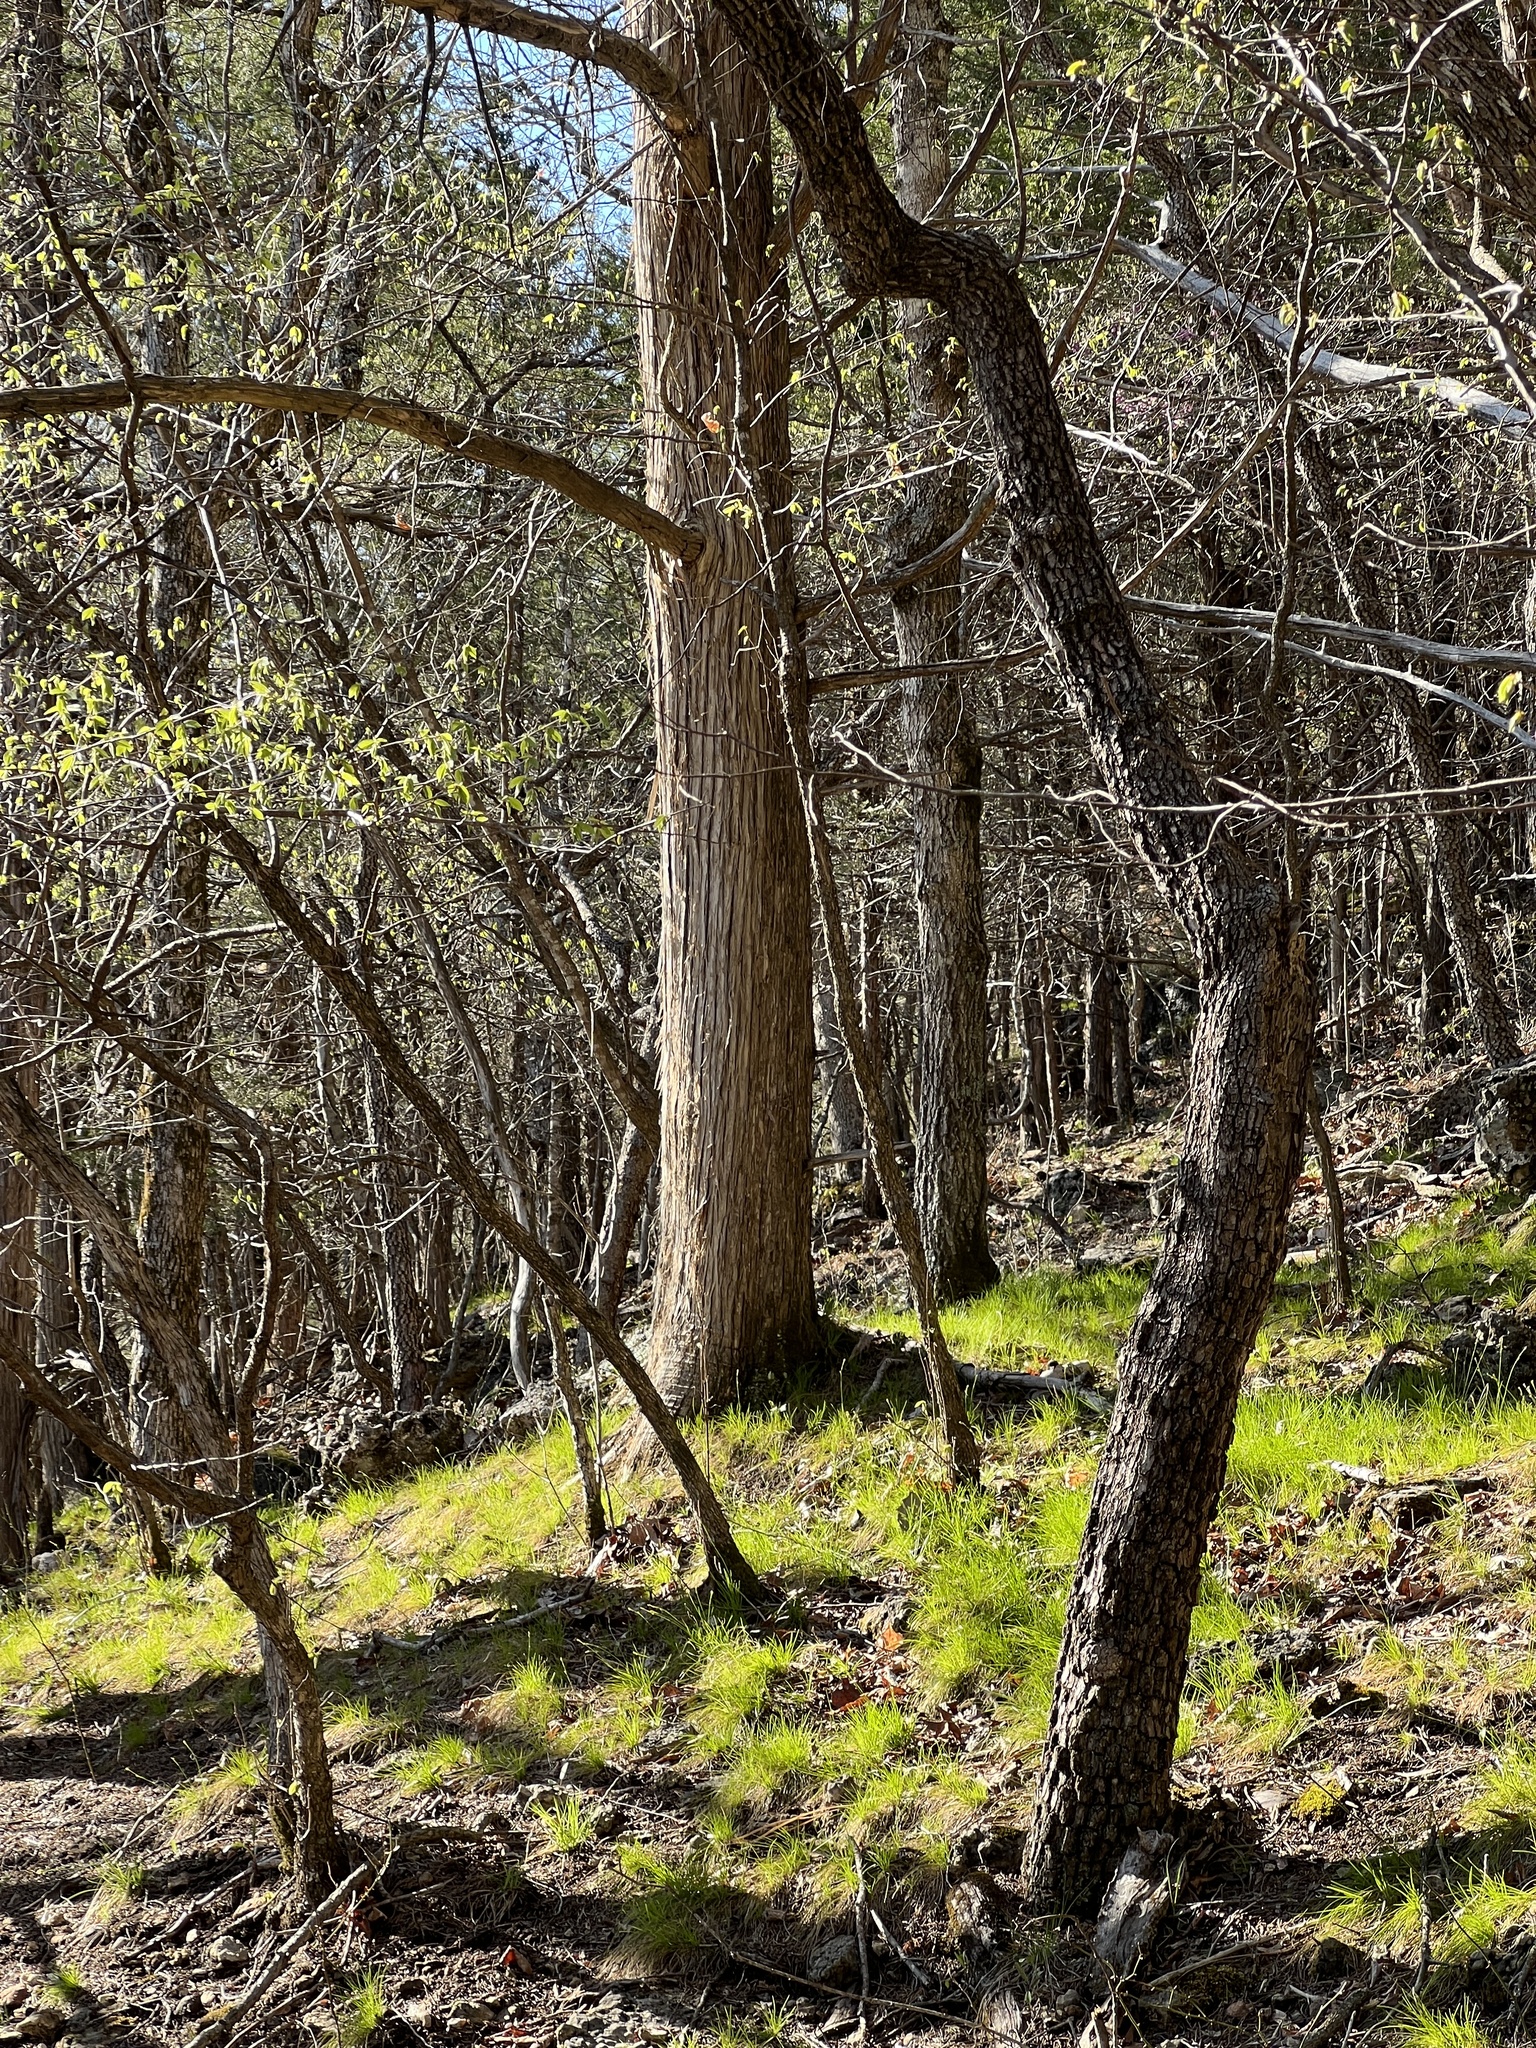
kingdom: Plantae
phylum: Tracheophyta
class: Liliopsida
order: Poales
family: Cyperaceae
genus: Carex
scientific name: Carex eburnea
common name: Bristle-leaved sedge
